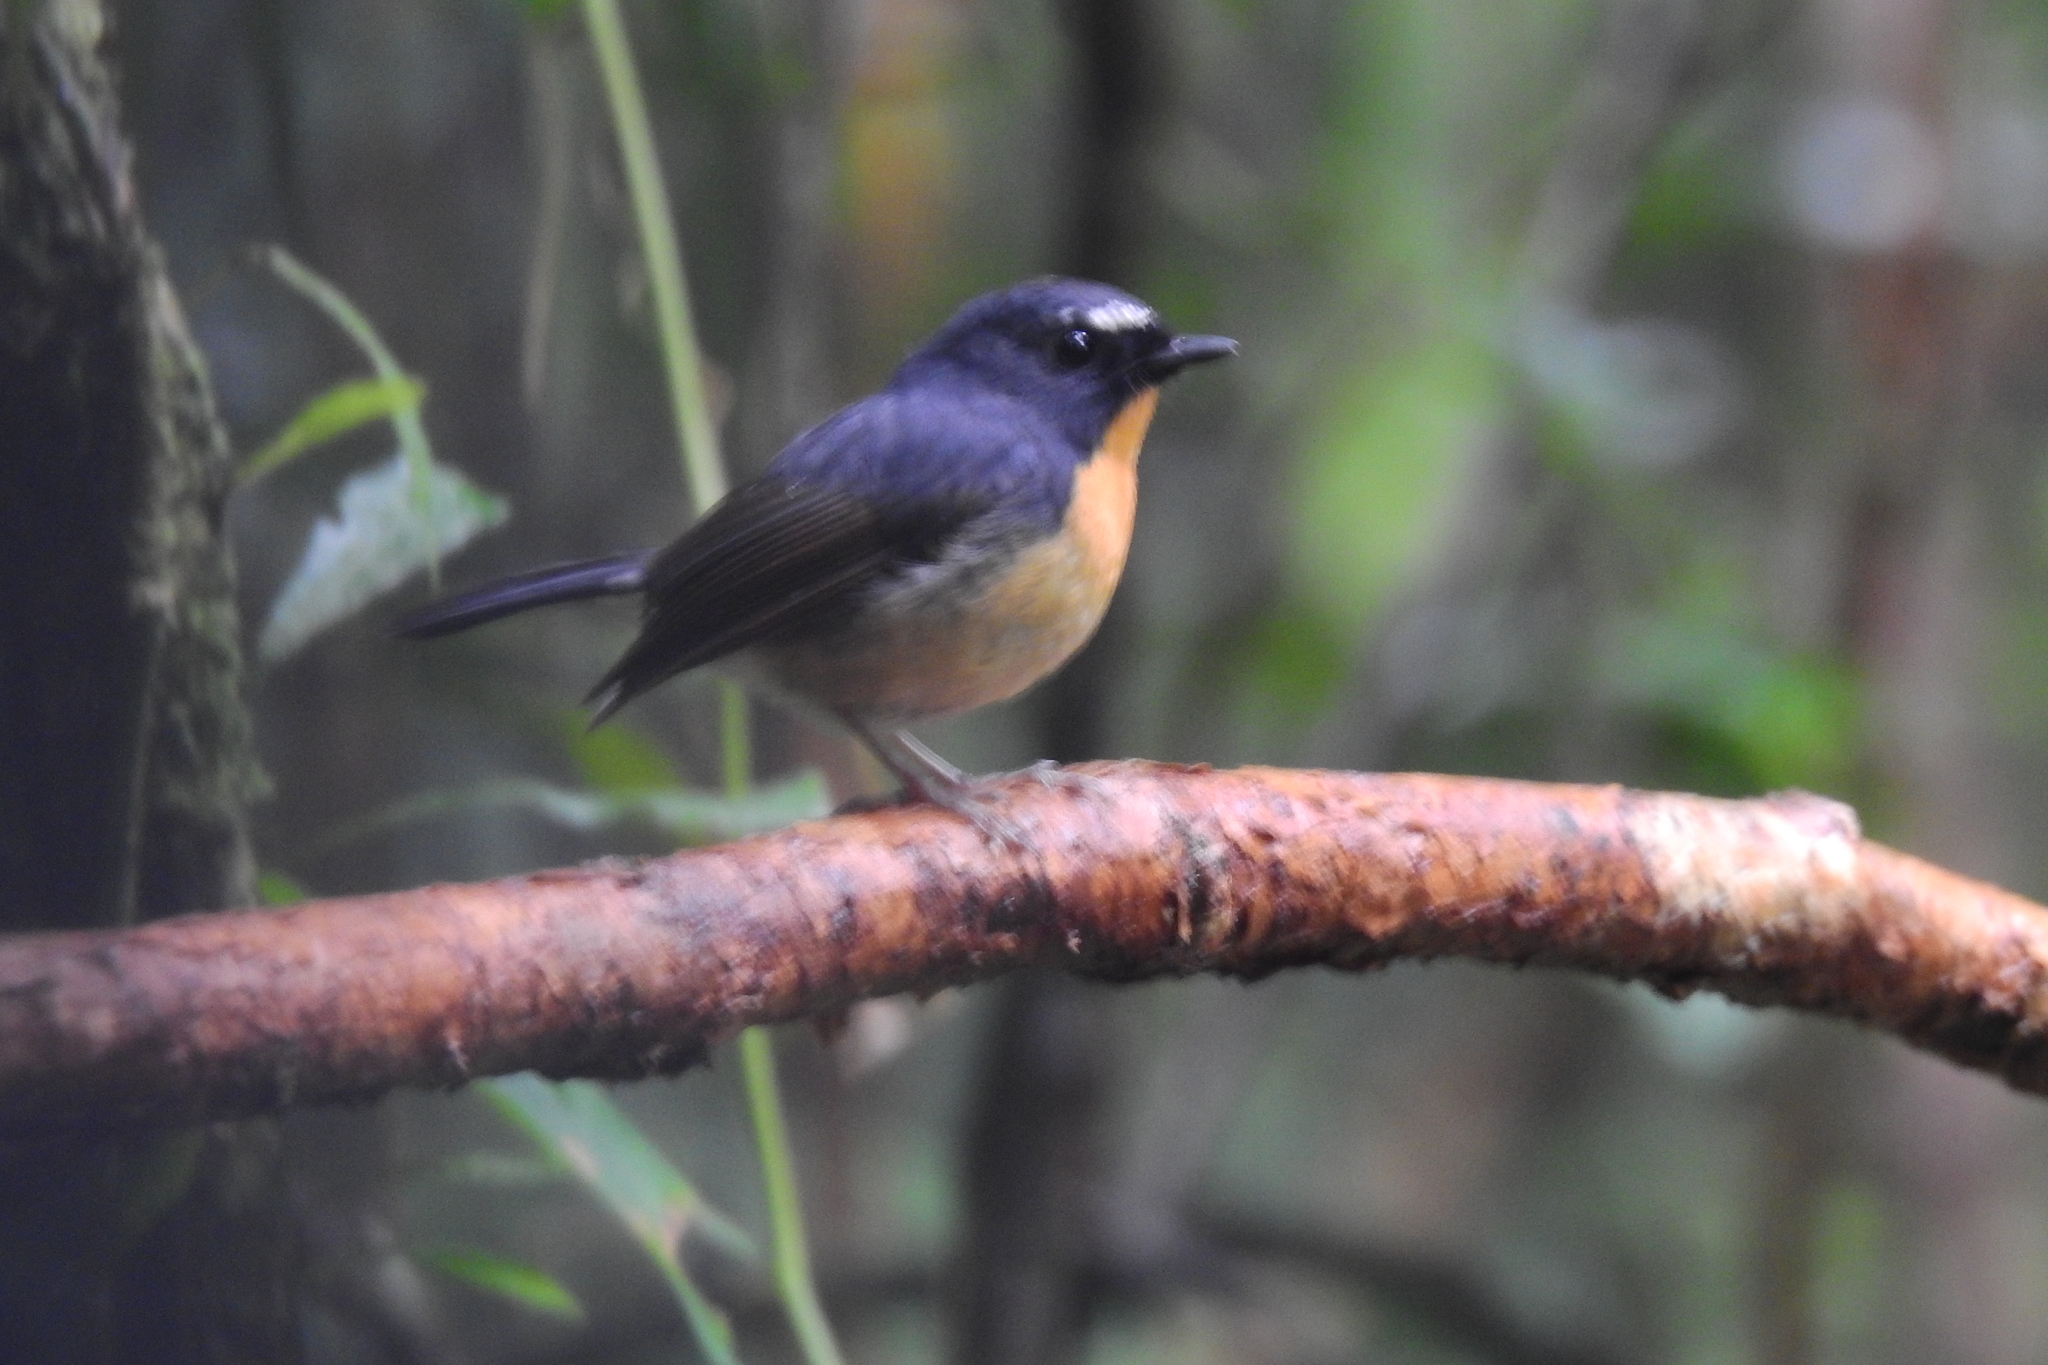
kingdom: Animalia
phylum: Chordata
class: Aves
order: Passeriformes
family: Muscicapidae
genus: Ficedula
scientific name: Ficedula hyperythra
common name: Snowy-browed flycatcher
